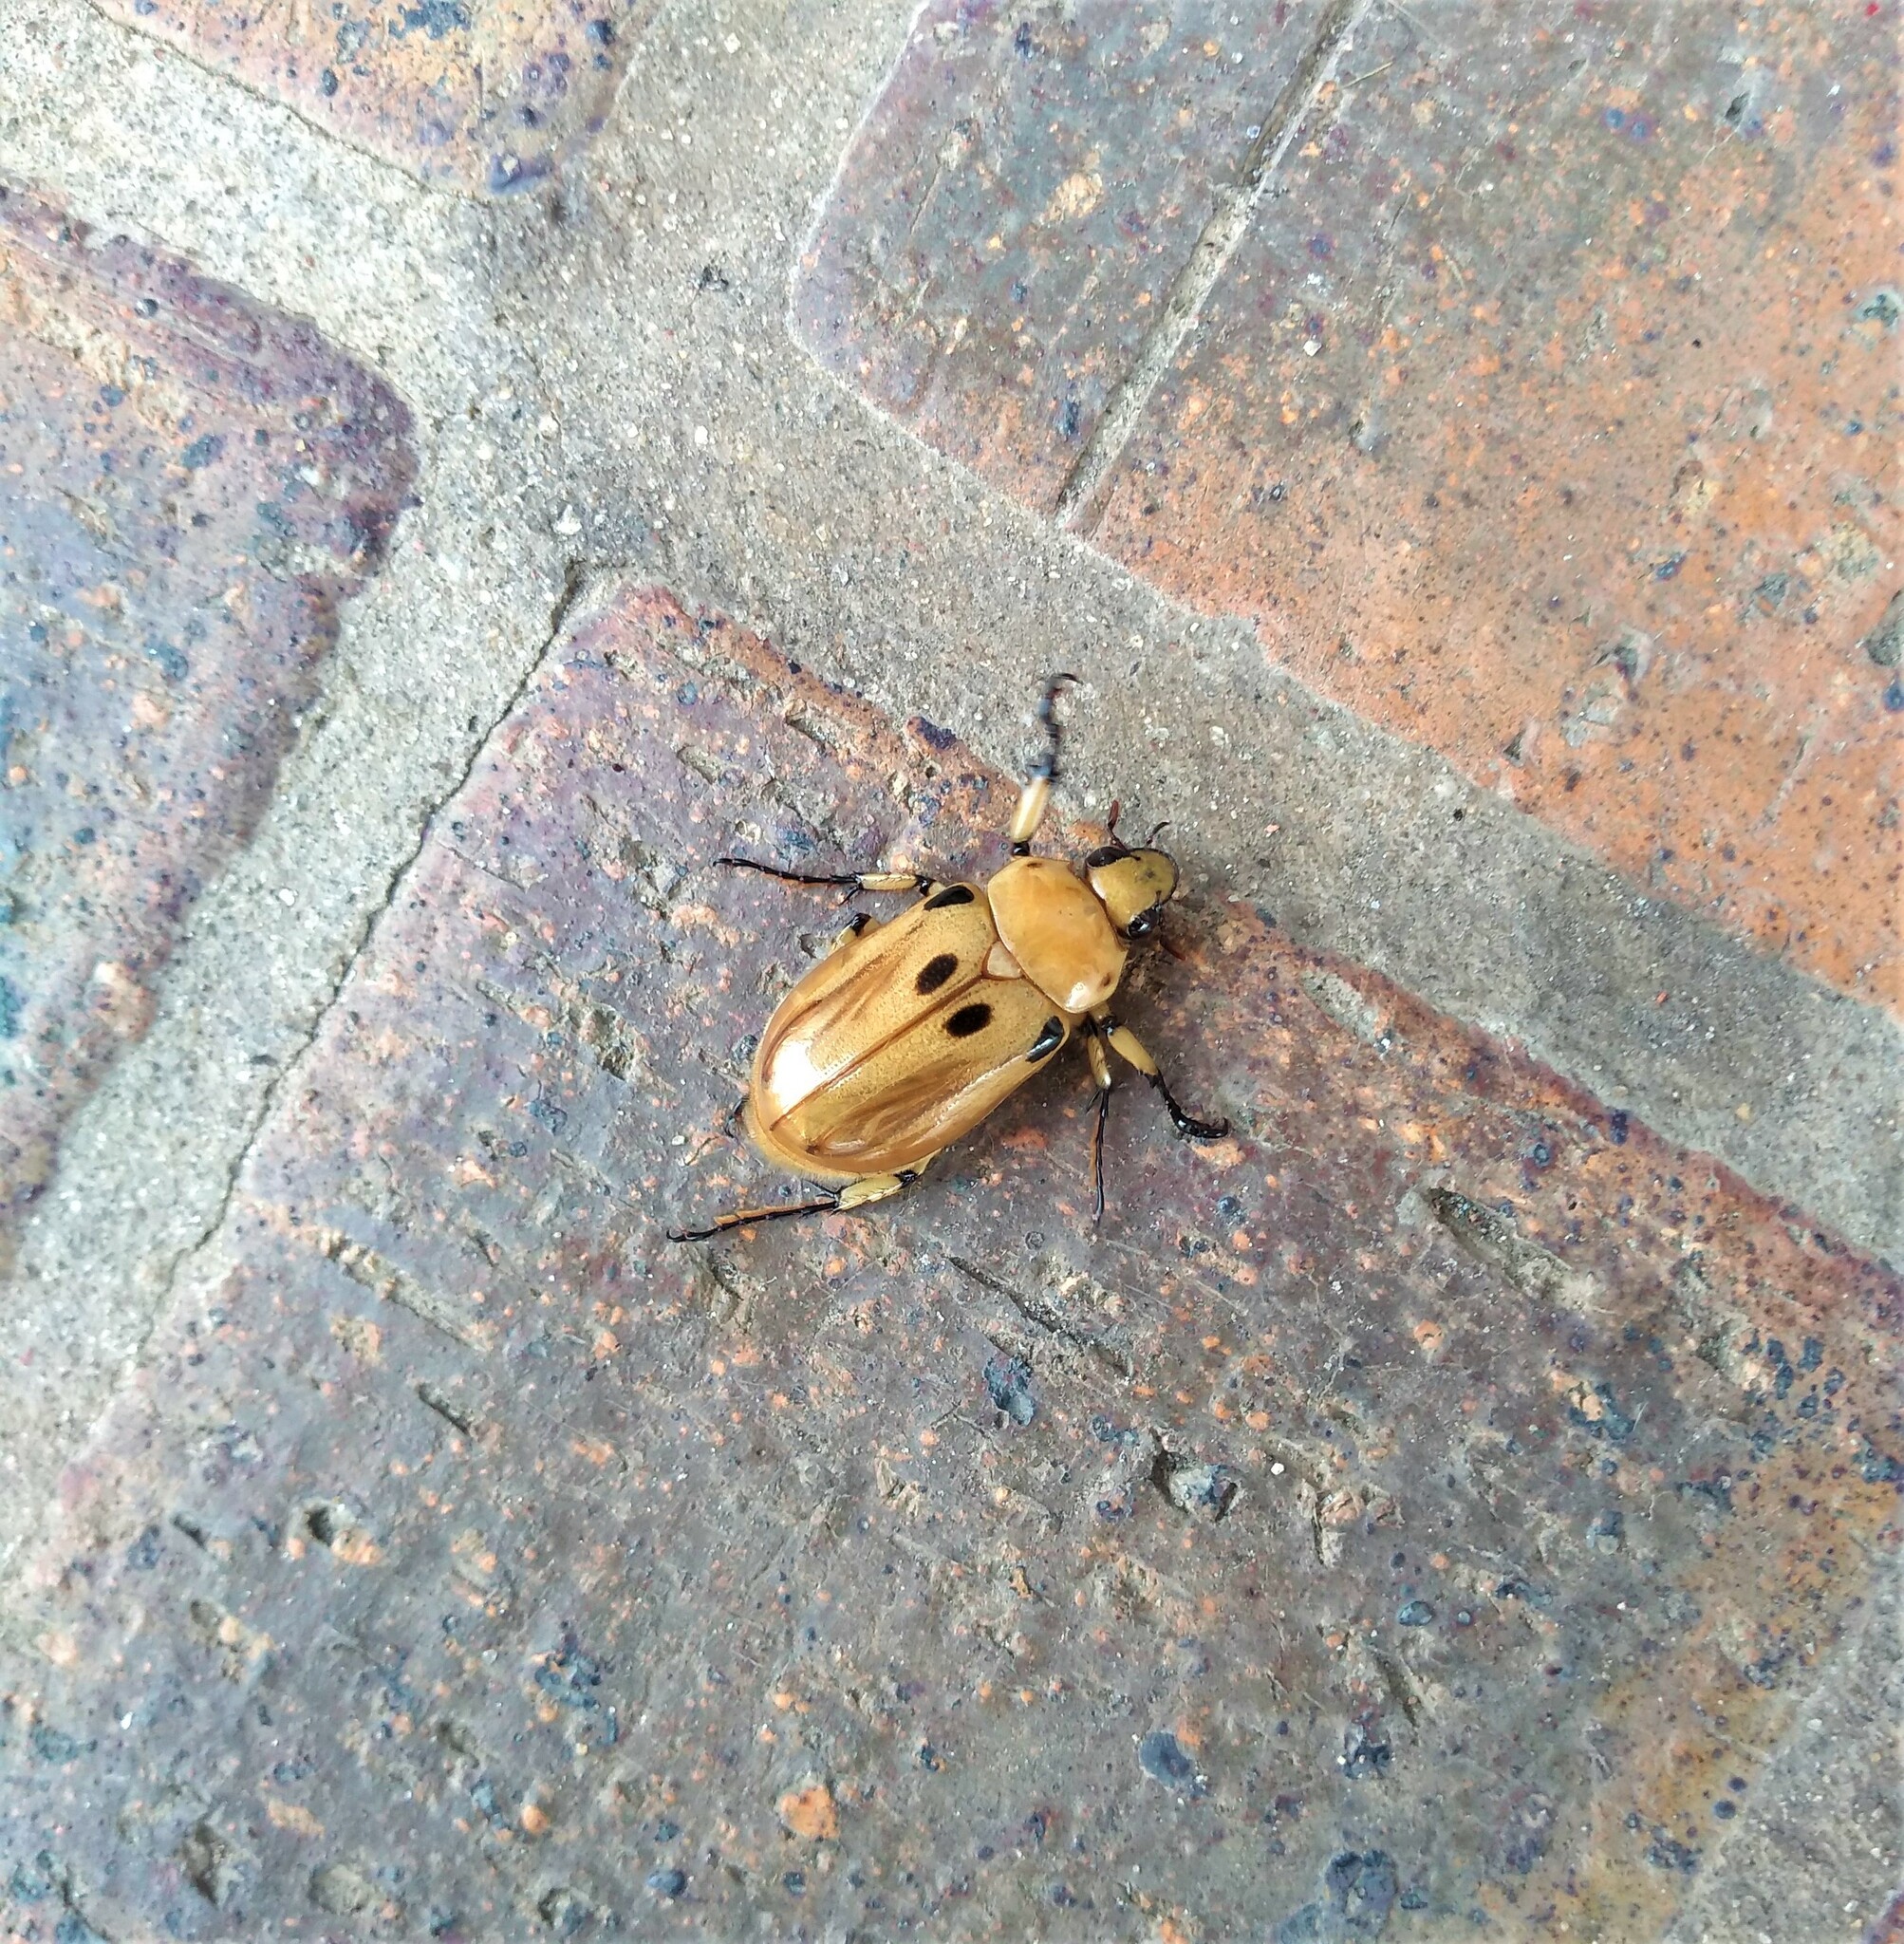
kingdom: Animalia
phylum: Arthropoda
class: Insecta
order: Coleoptera
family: Scarabaeidae
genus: Ancognatha
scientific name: Ancognatha vulgaris
